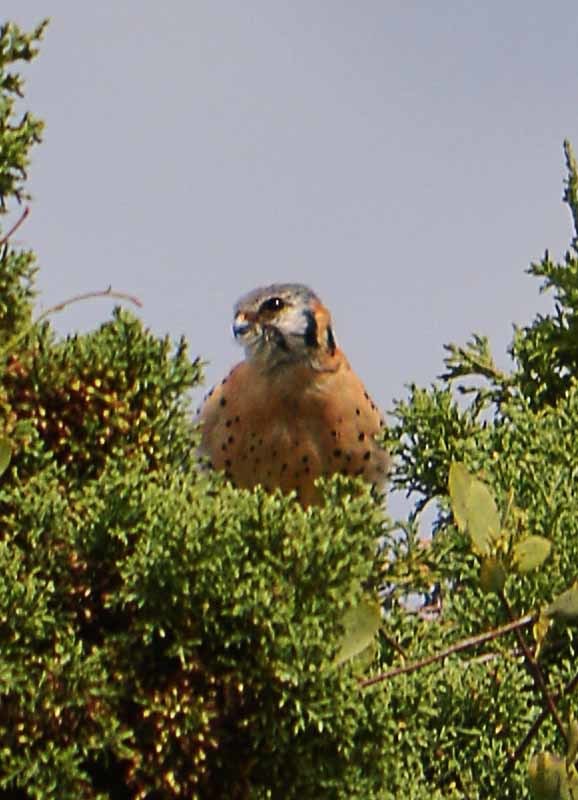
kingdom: Animalia
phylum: Chordata
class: Aves
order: Falconiformes
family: Falconidae
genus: Falco
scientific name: Falco sparverius
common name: American kestrel
